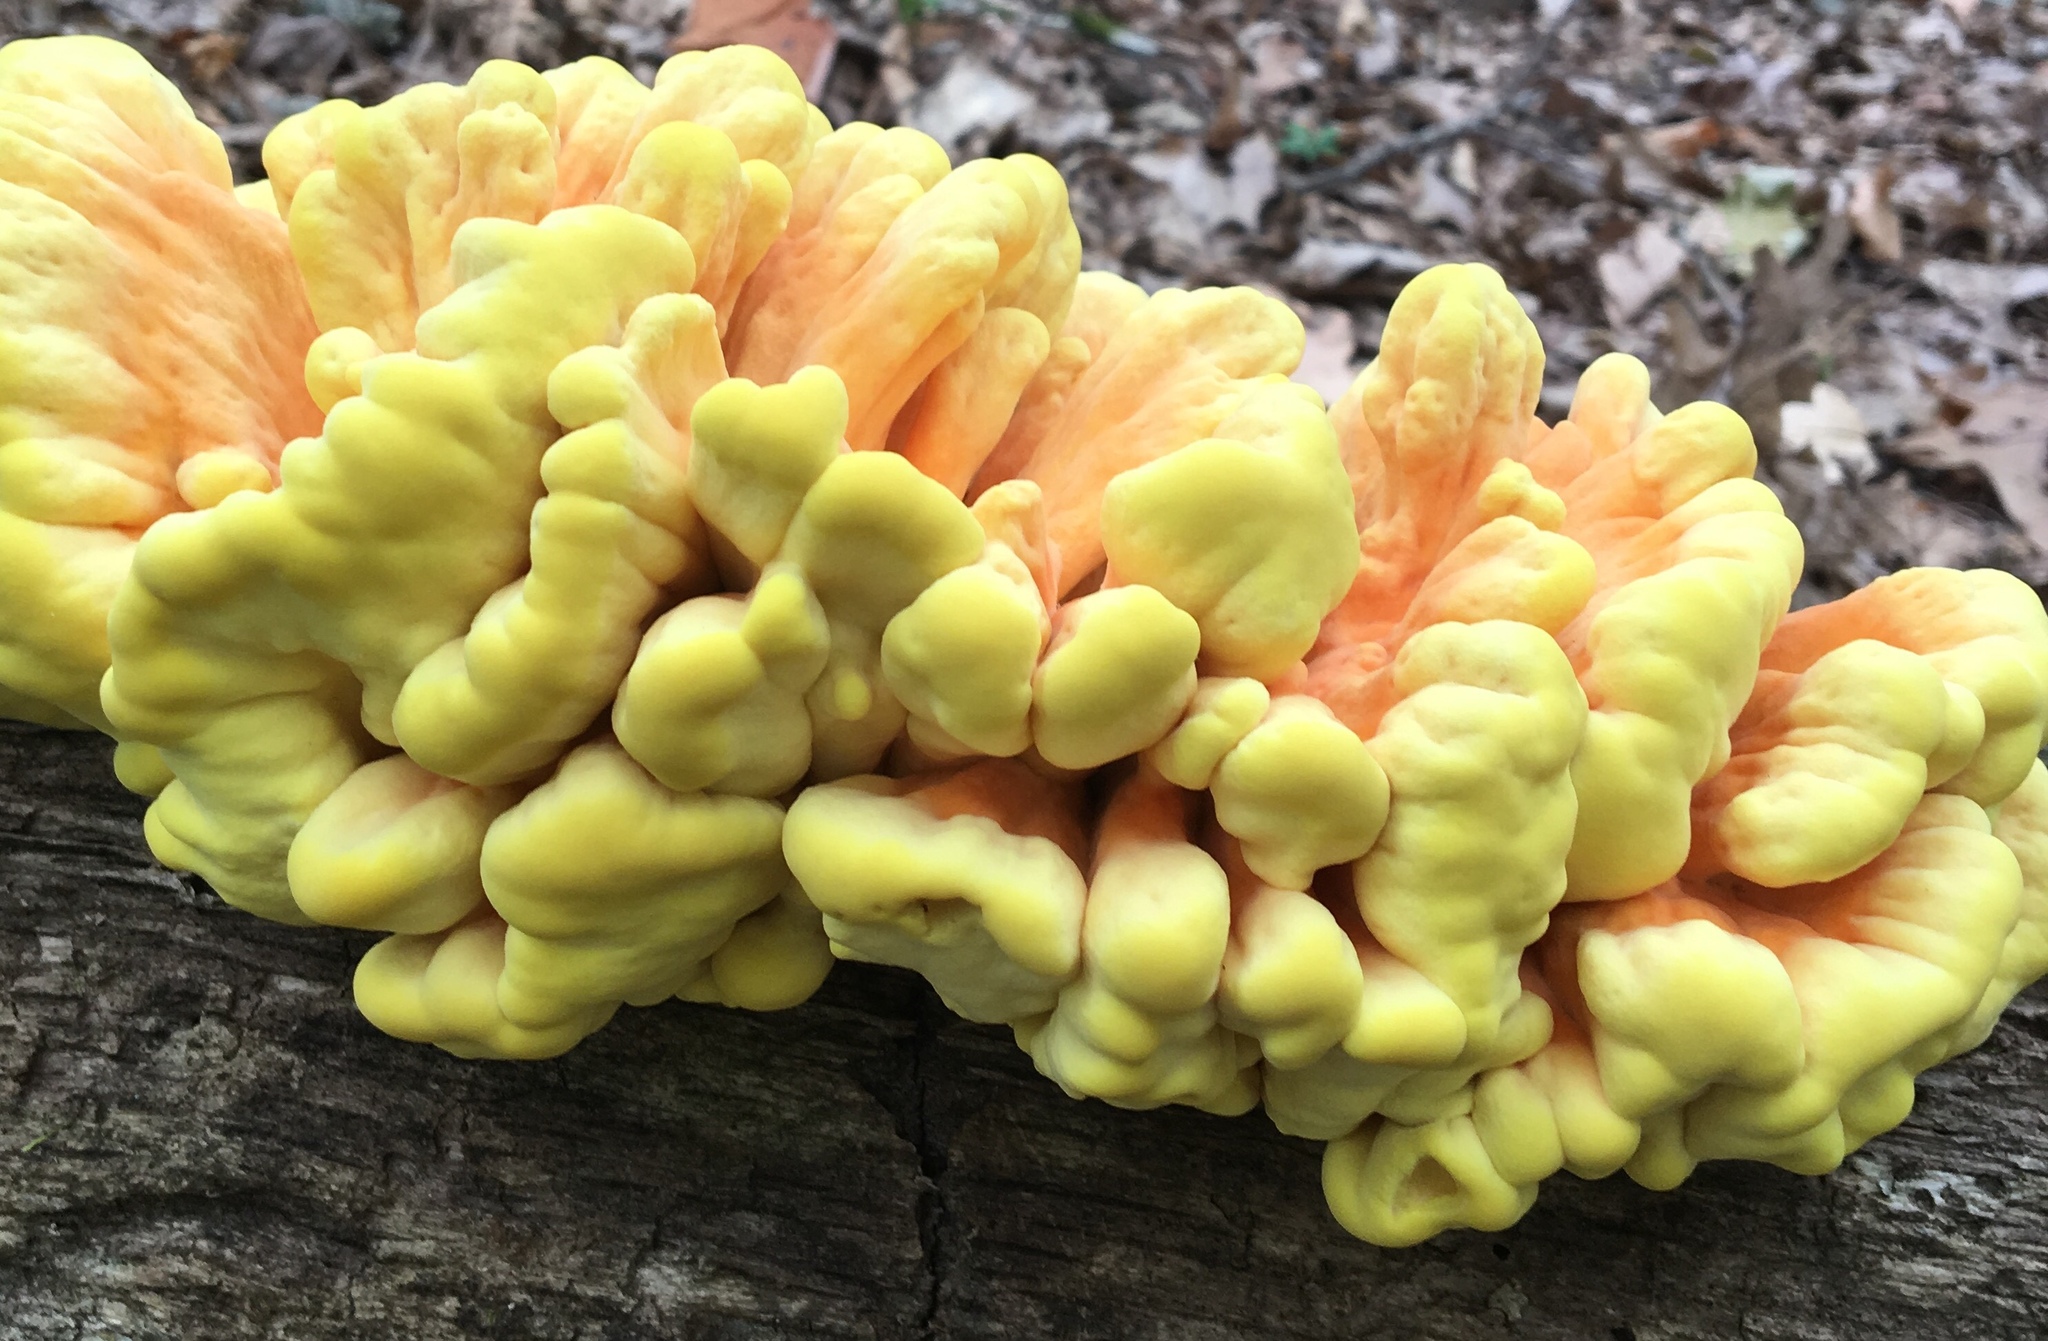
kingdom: Fungi
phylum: Basidiomycota
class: Agaricomycetes
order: Polyporales
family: Laetiporaceae
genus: Laetiporus
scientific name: Laetiporus sulphureus
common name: Chicken of the woods
